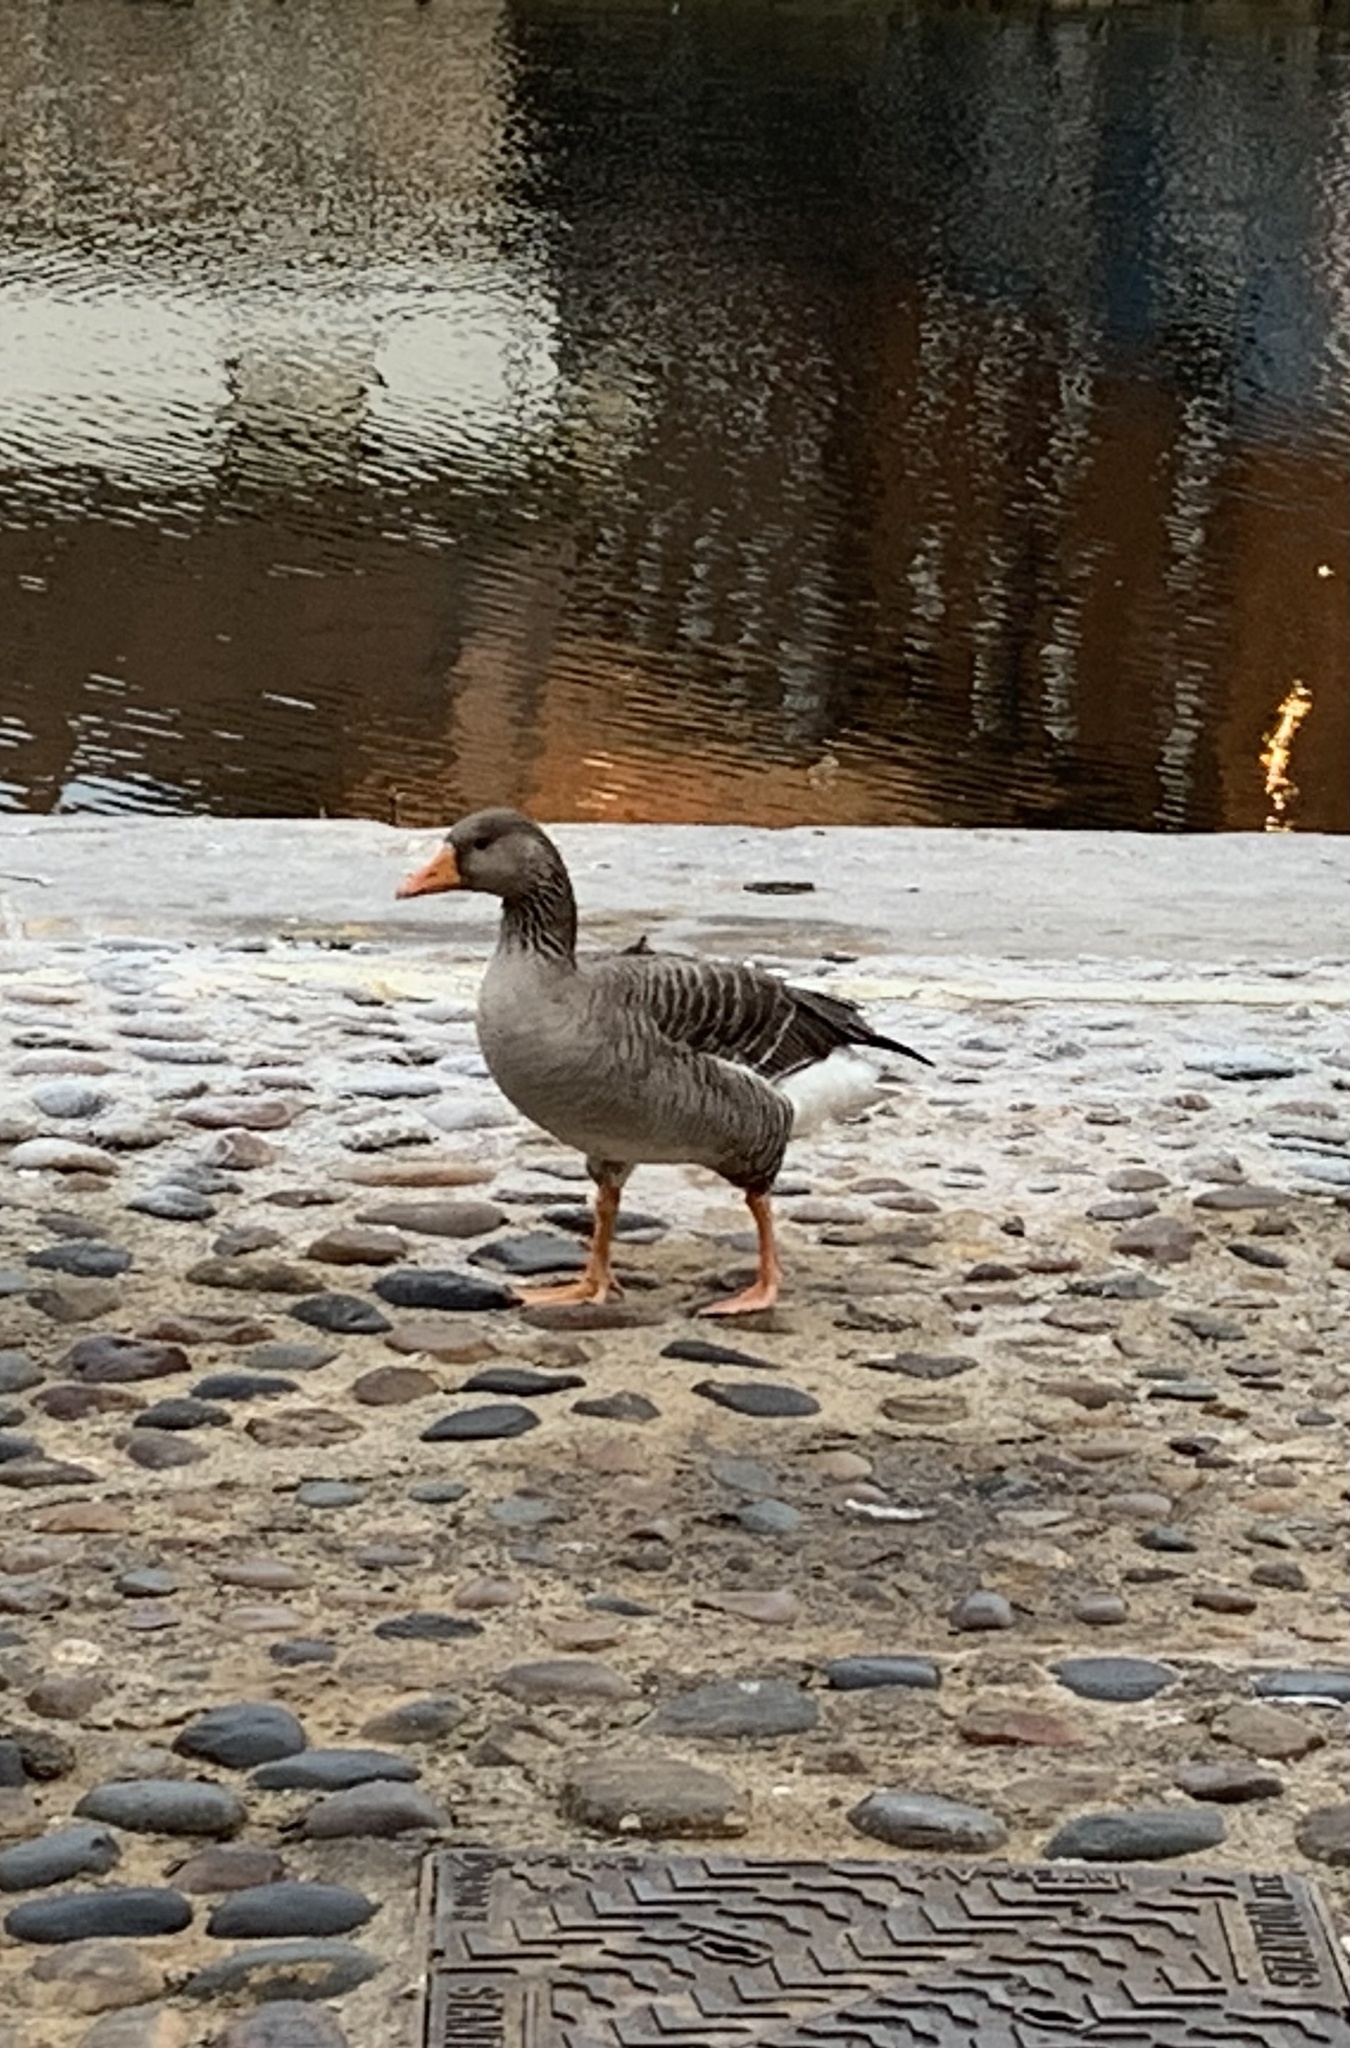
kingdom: Animalia
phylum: Chordata
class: Aves
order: Anseriformes
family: Anatidae
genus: Anser
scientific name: Anser anser
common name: Greylag goose
